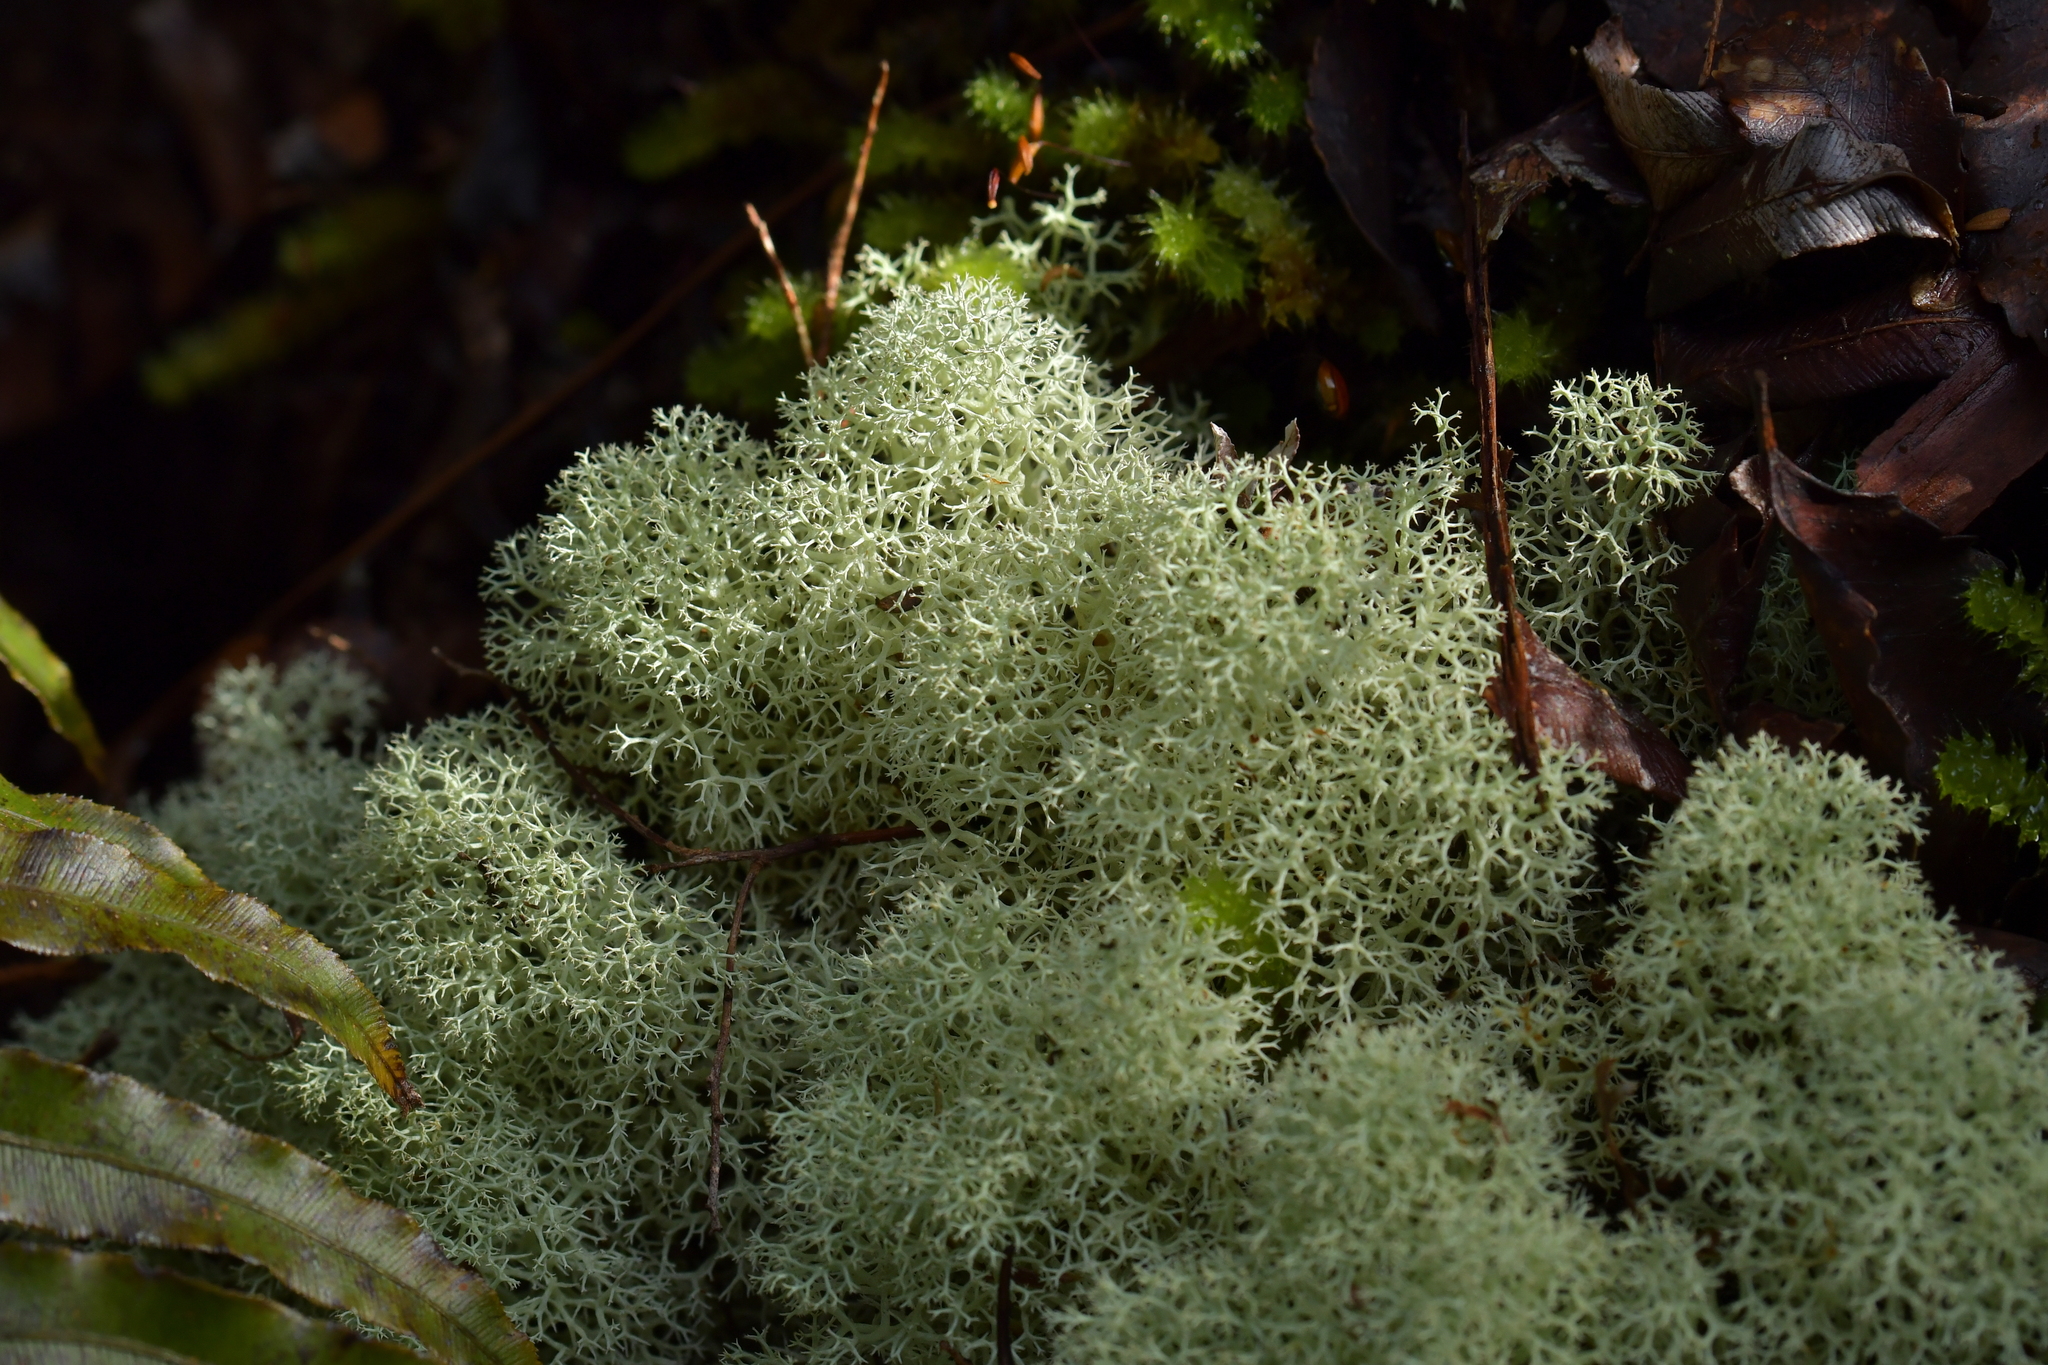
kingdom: Fungi
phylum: Ascomycota
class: Lecanoromycetes
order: Lecanorales
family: Cladoniaceae
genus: Cladonia
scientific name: Cladonia confusa
